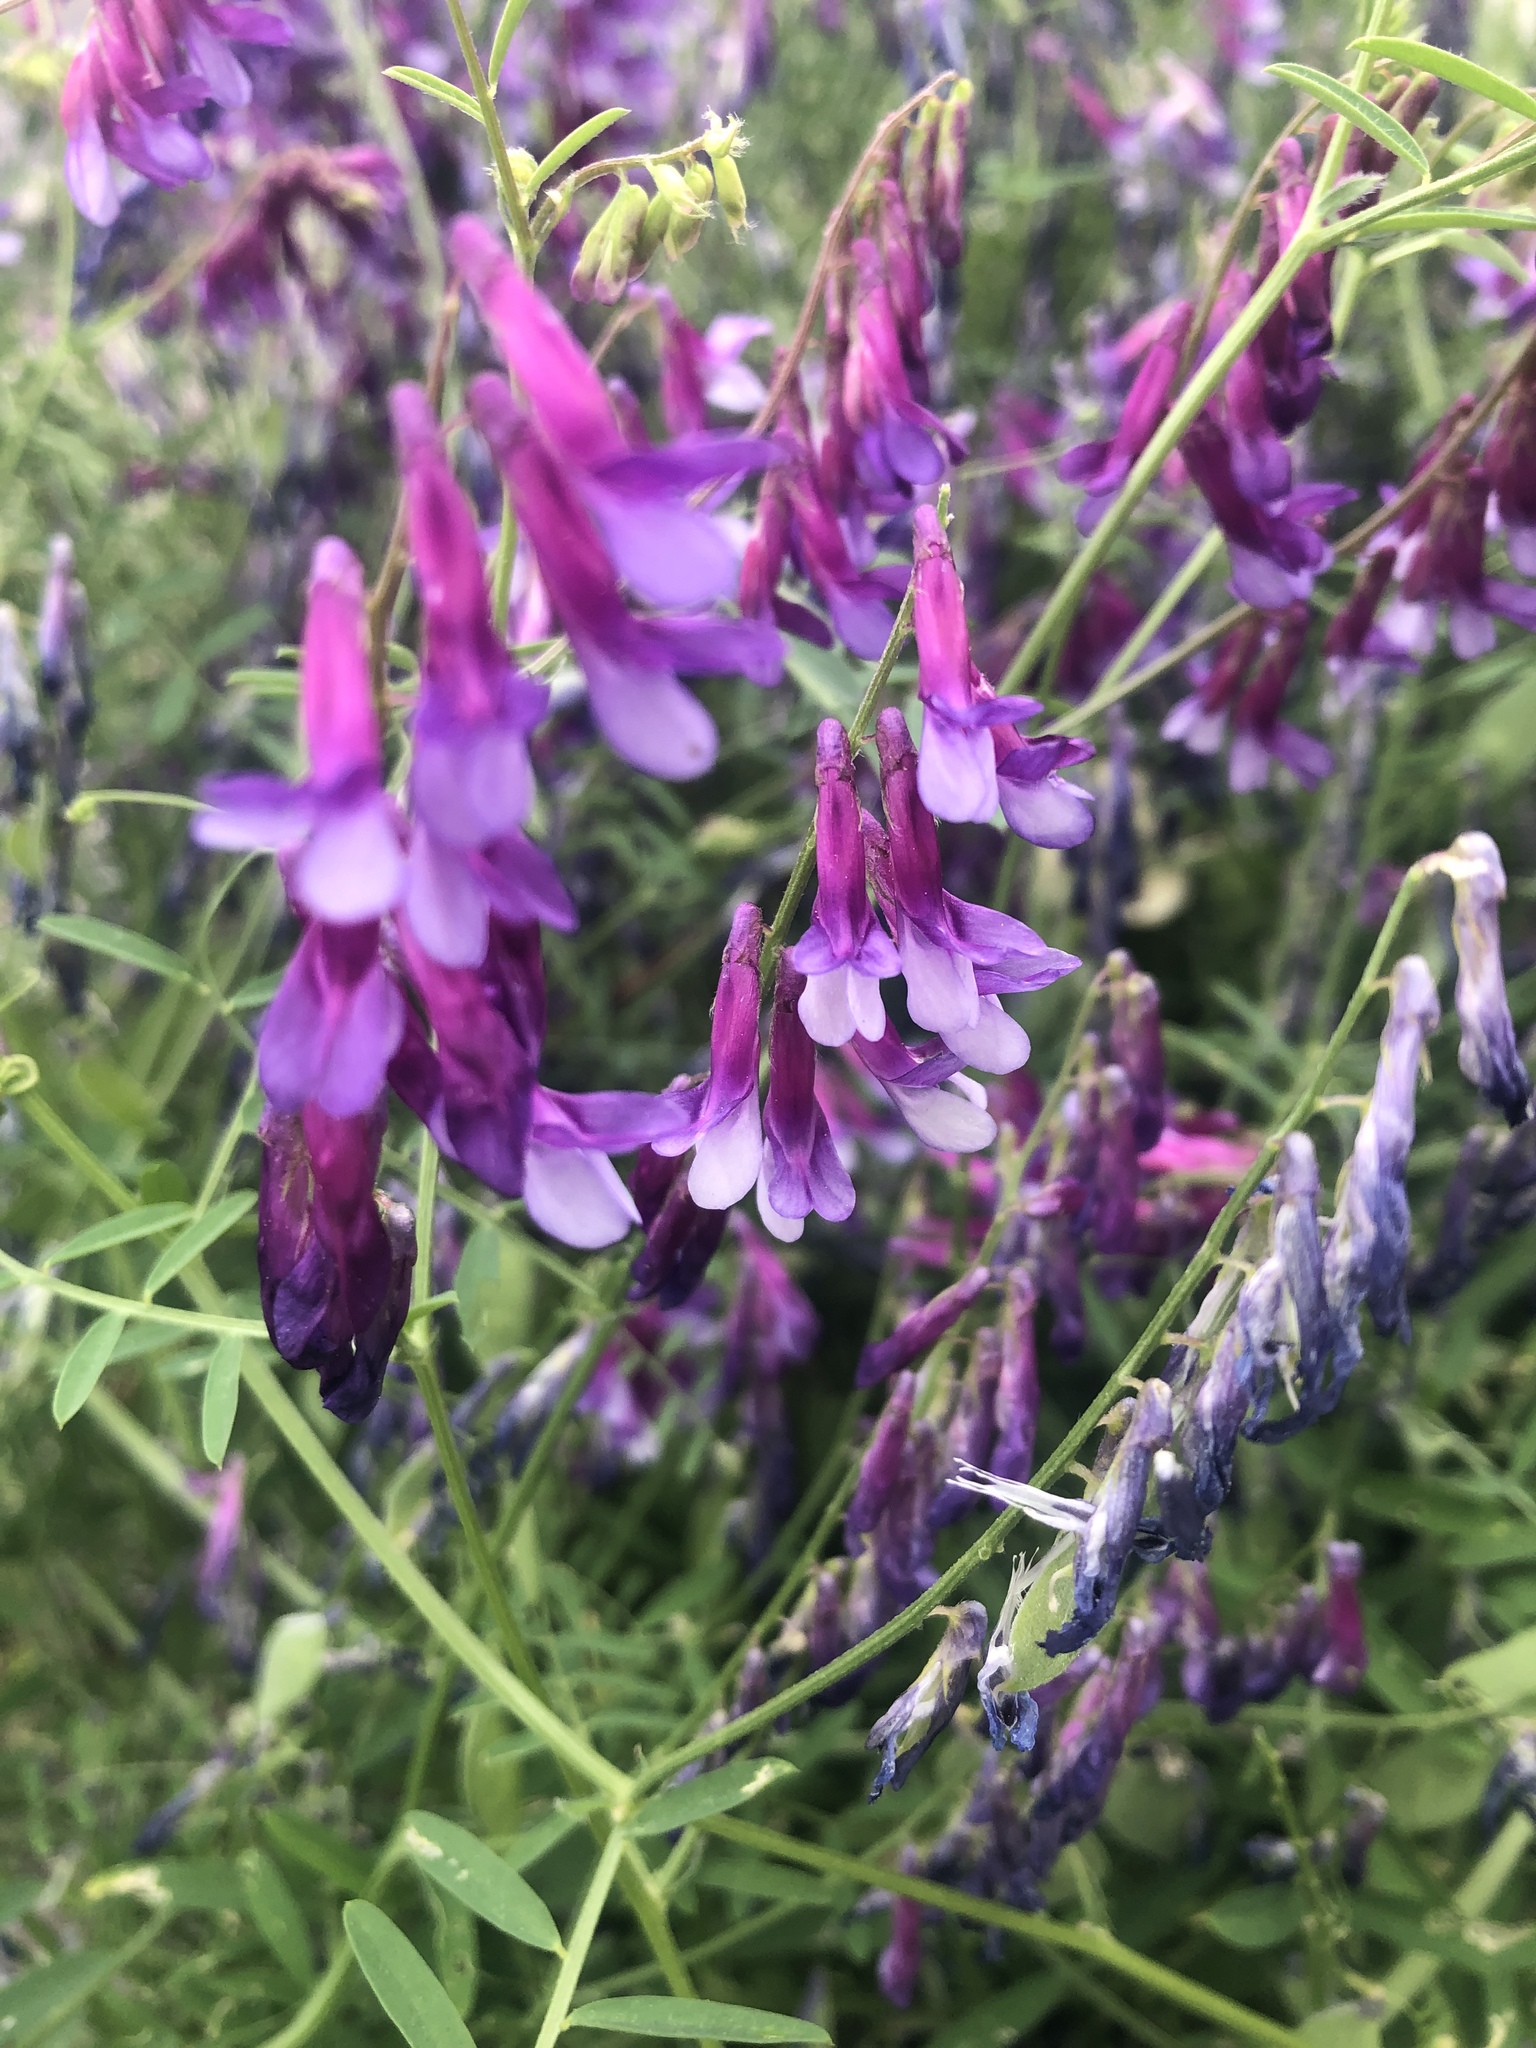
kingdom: Plantae
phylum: Tracheophyta
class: Magnoliopsida
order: Fabales
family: Fabaceae
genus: Vicia
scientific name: Vicia villosa
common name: Fodder vetch
